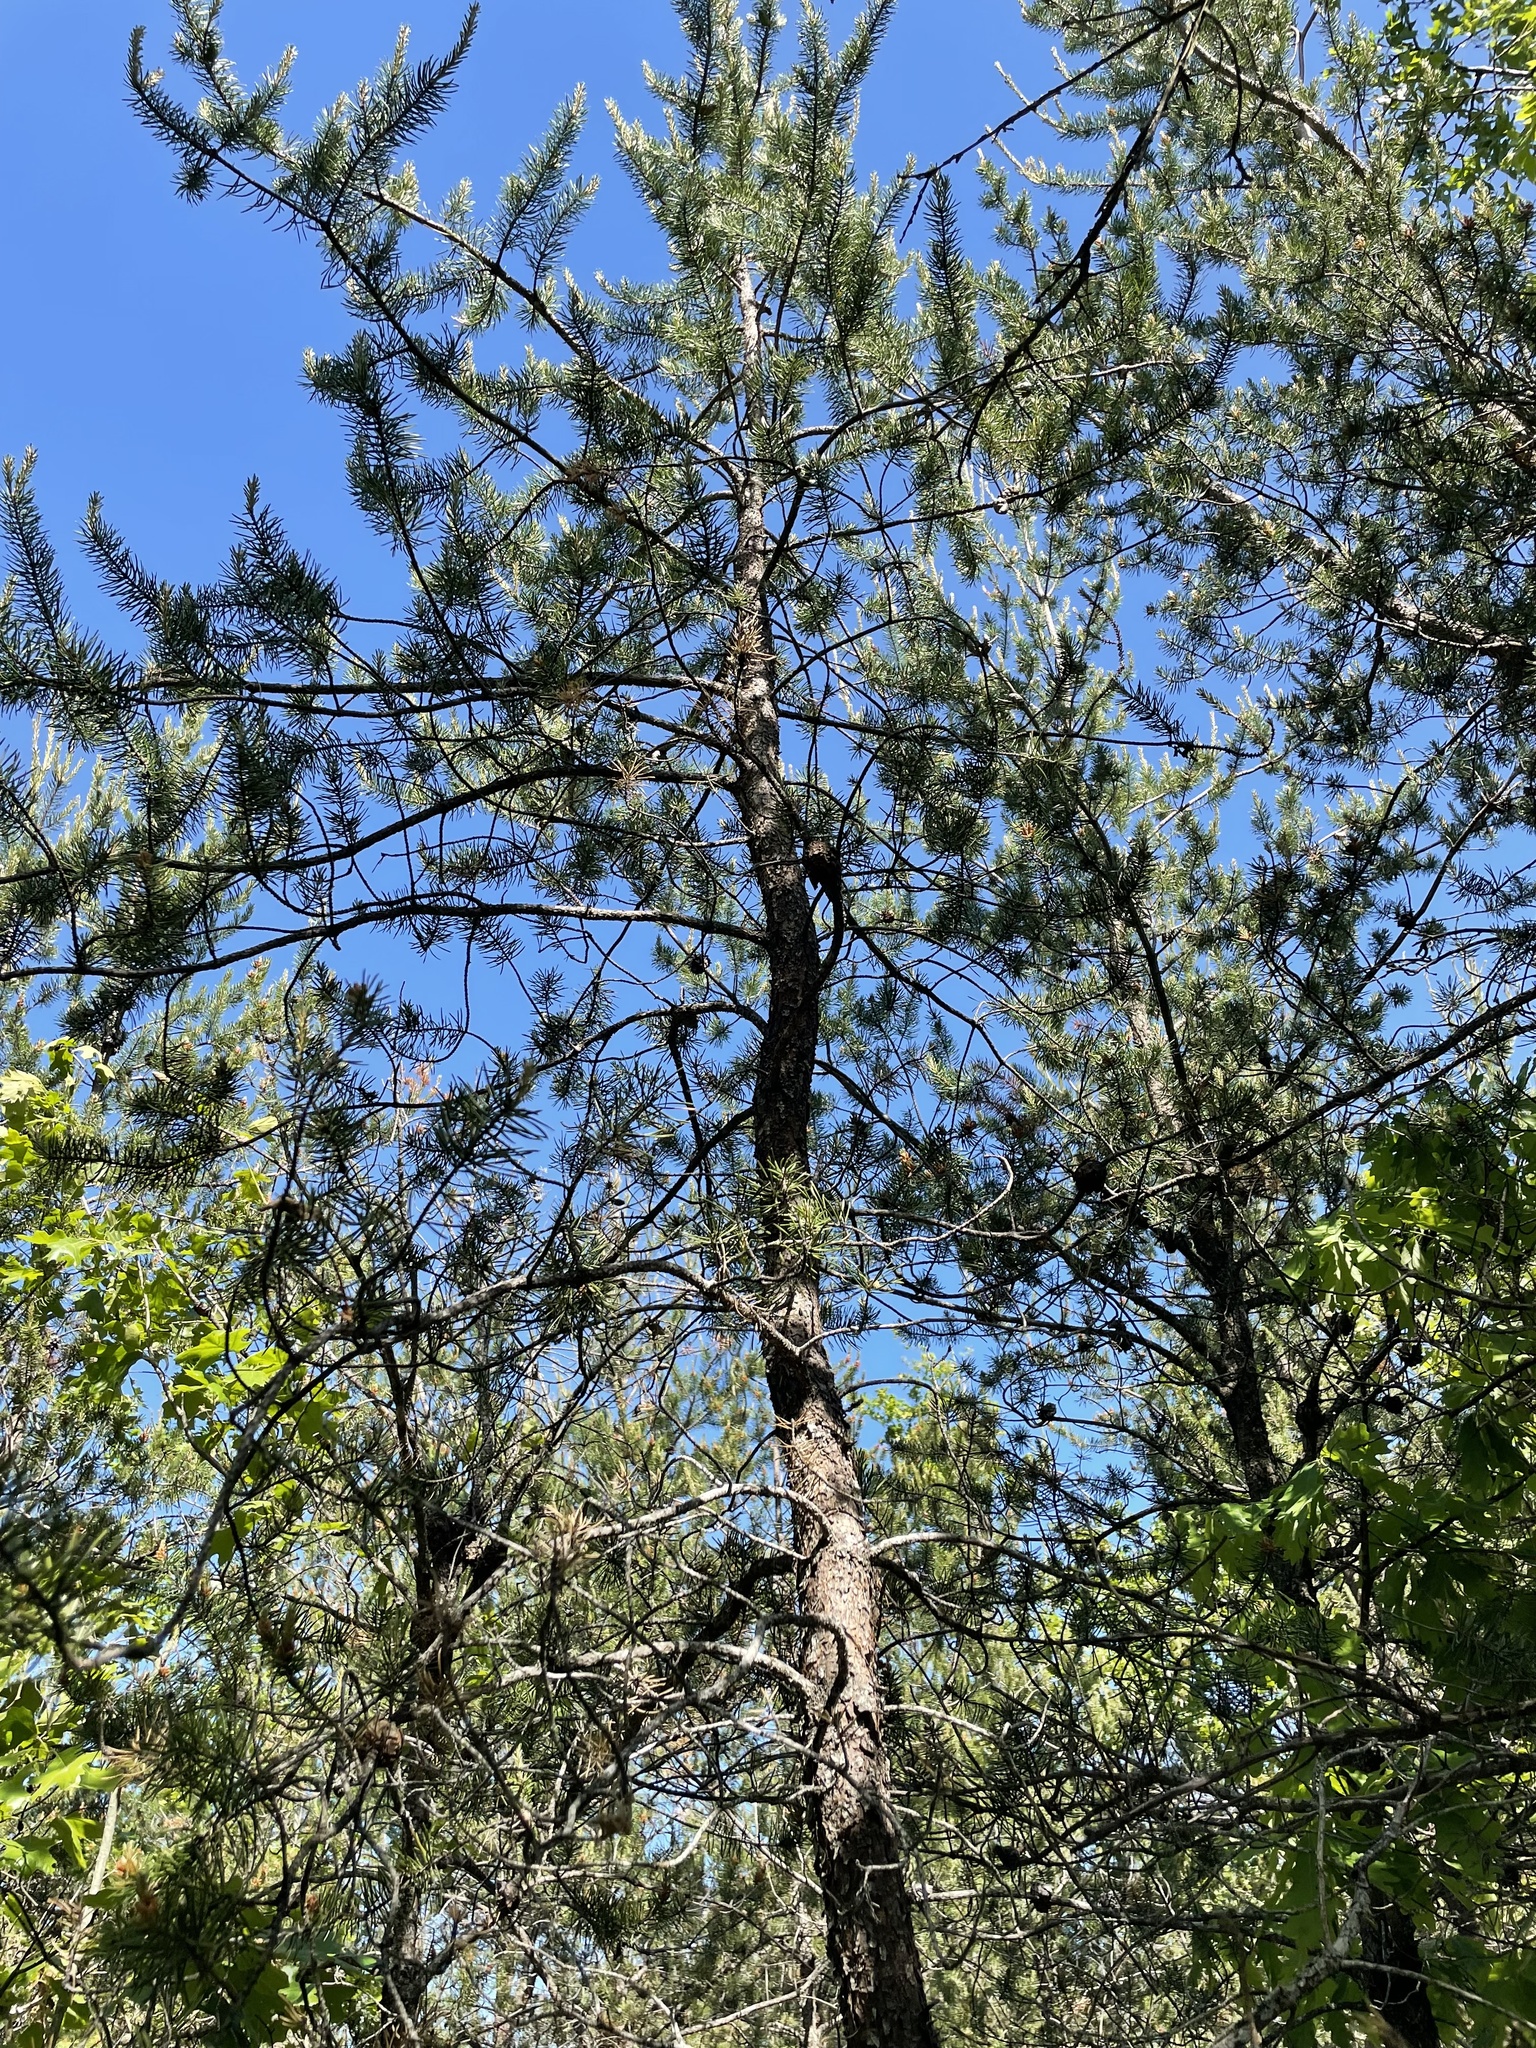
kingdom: Plantae
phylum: Tracheophyta
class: Pinopsida
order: Pinales
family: Pinaceae
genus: Pinus
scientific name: Pinus banksiana
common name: Jack pine
